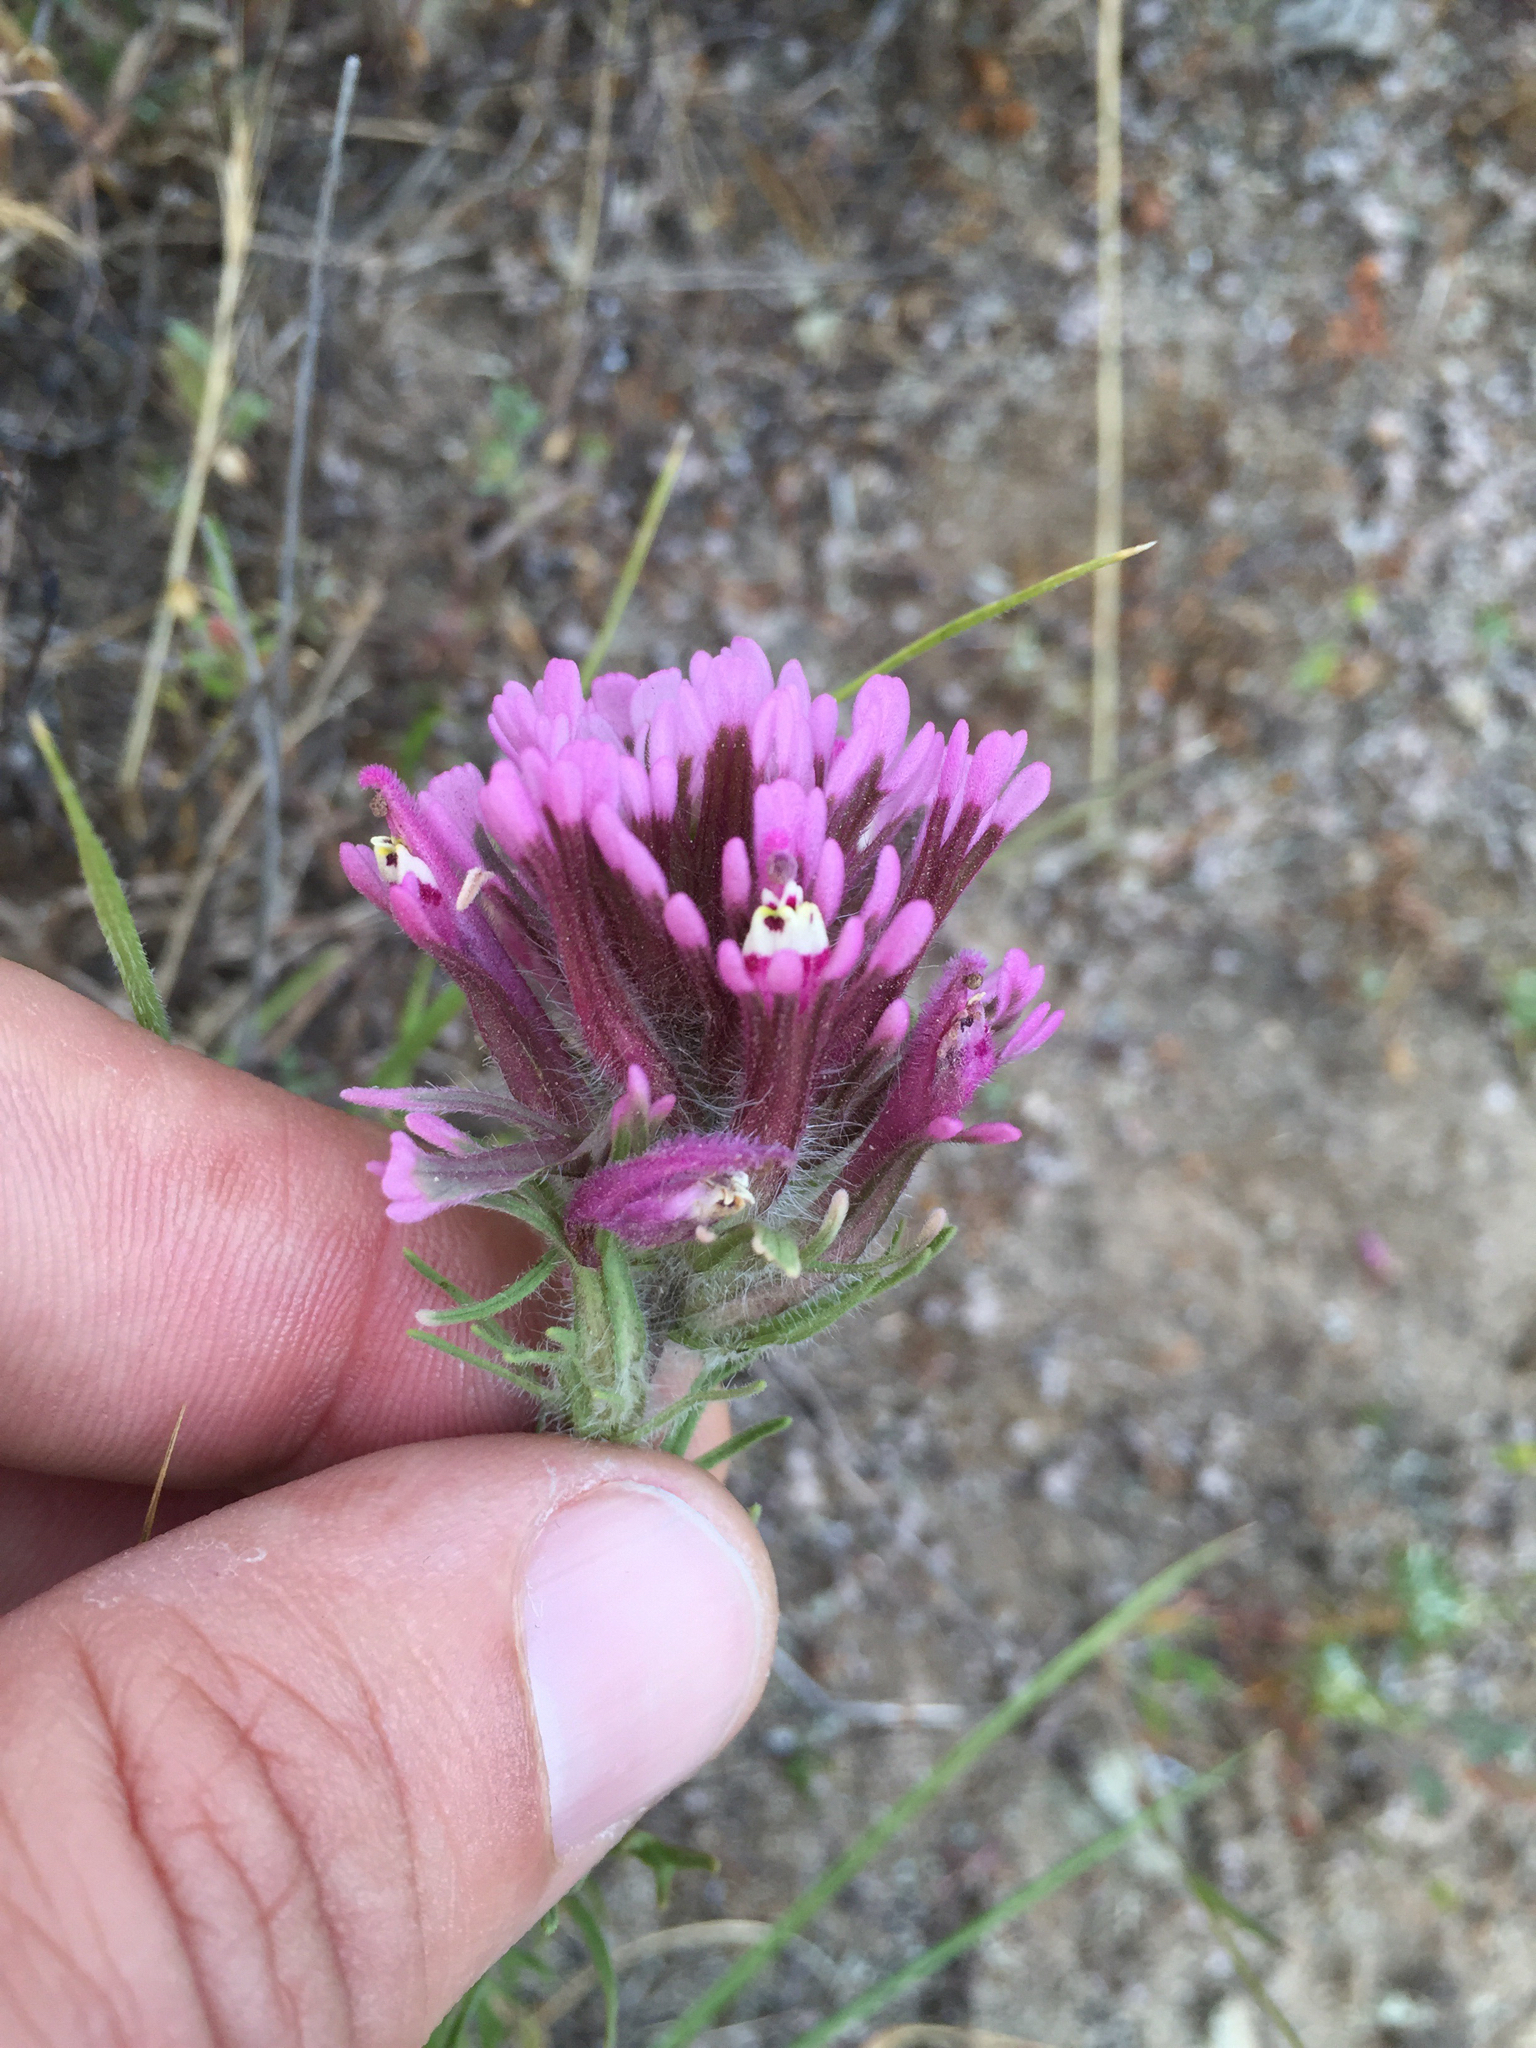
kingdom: Plantae
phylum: Tracheophyta
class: Magnoliopsida
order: Lamiales
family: Orobanchaceae
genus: Castilleja
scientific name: Castilleja exserta
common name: Purple owl-clover
